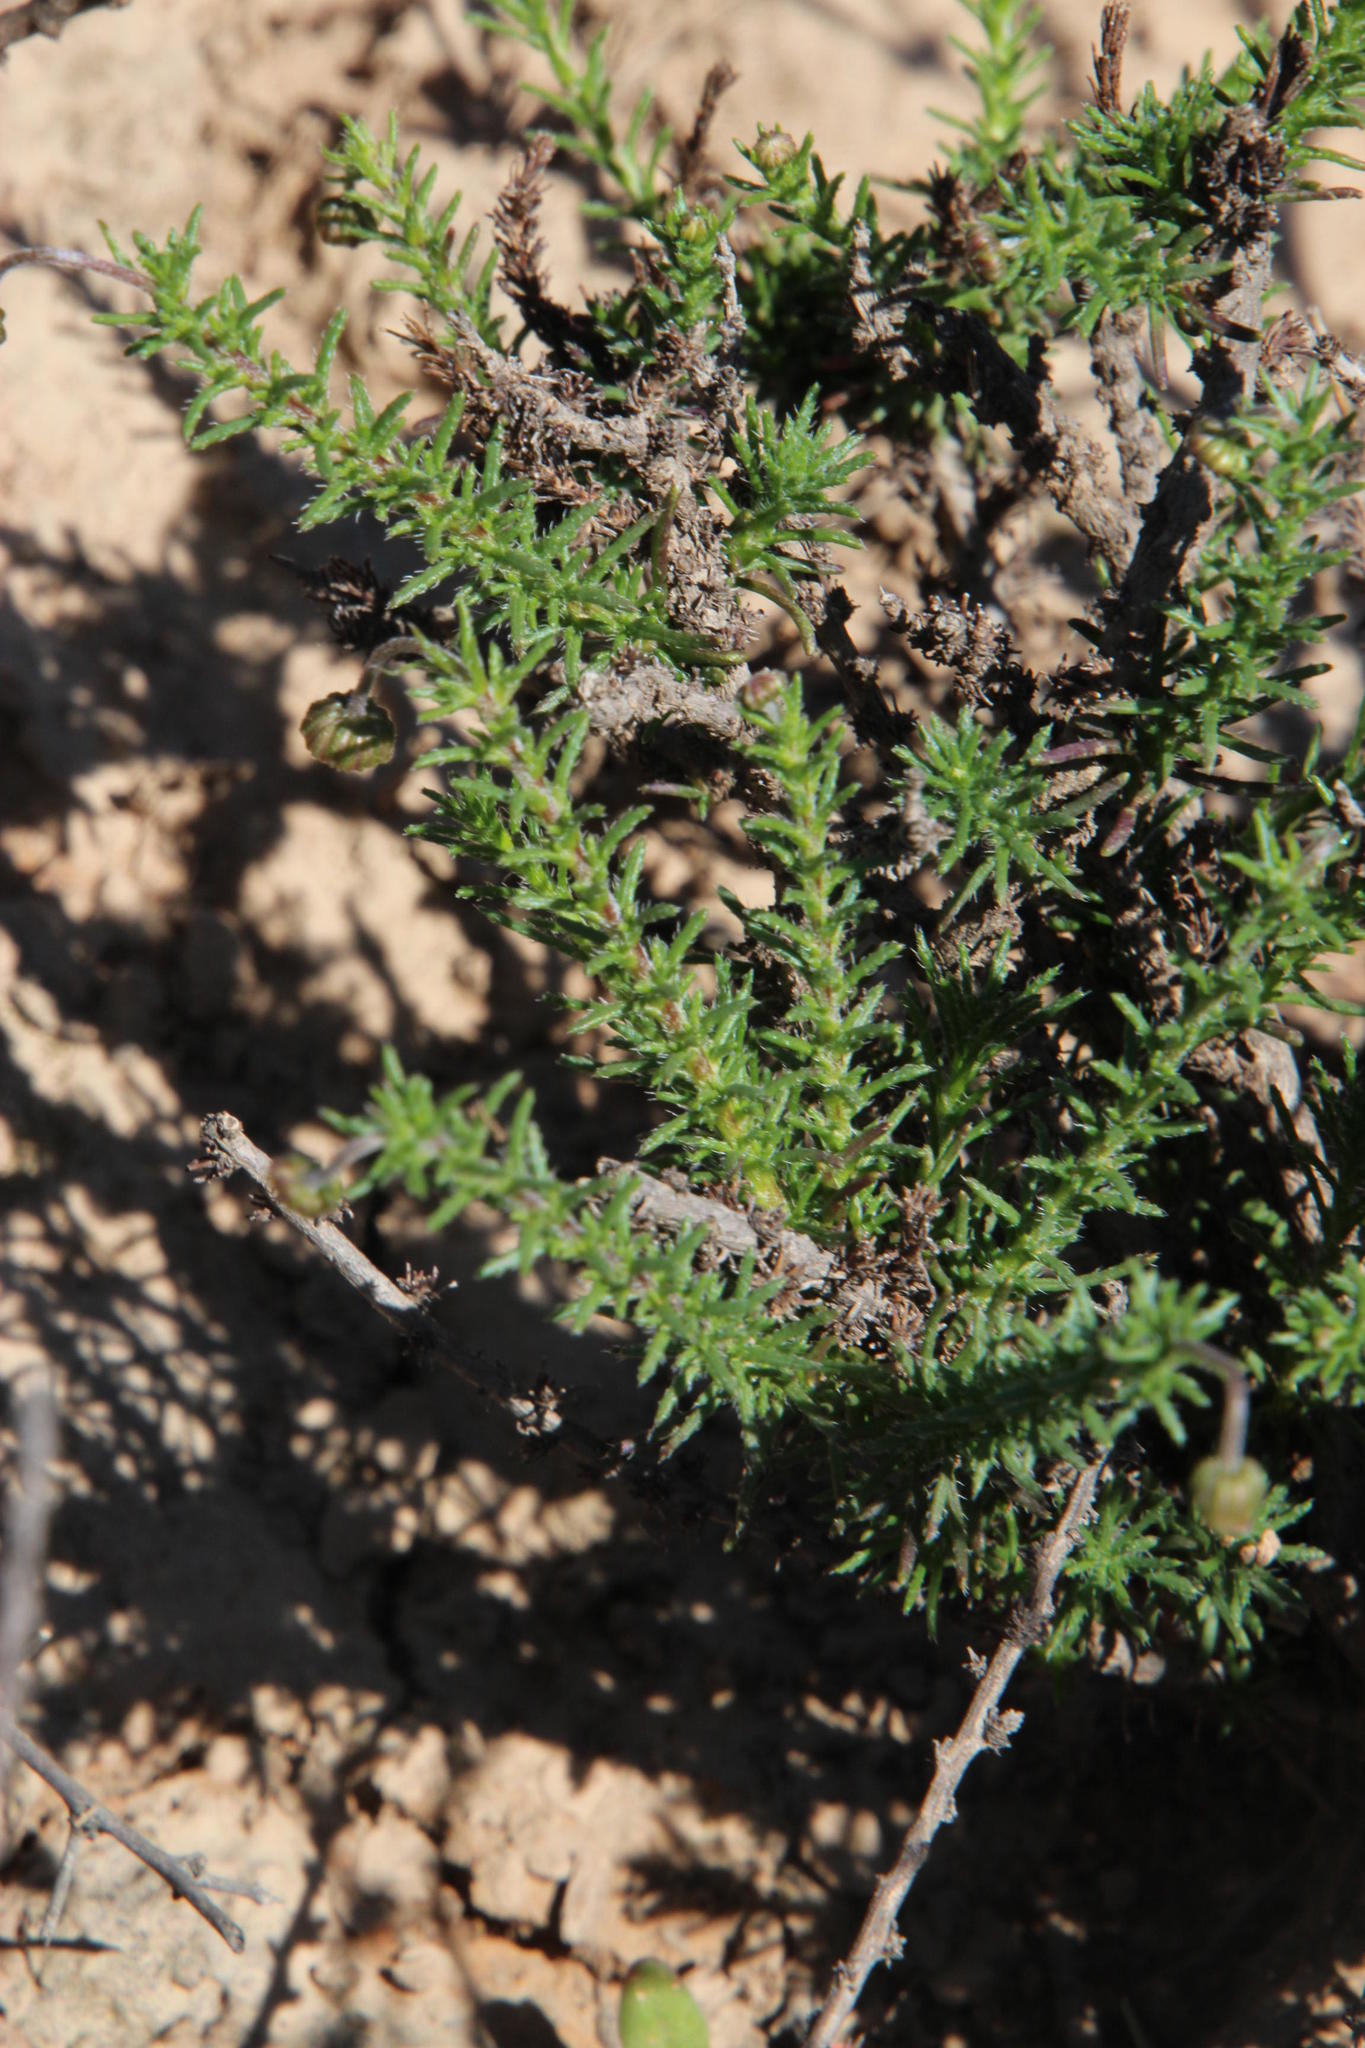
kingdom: Plantae
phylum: Tracheophyta
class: Magnoliopsida
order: Asterales
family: Asteraceae
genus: Felicia
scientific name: Felicia muricata
